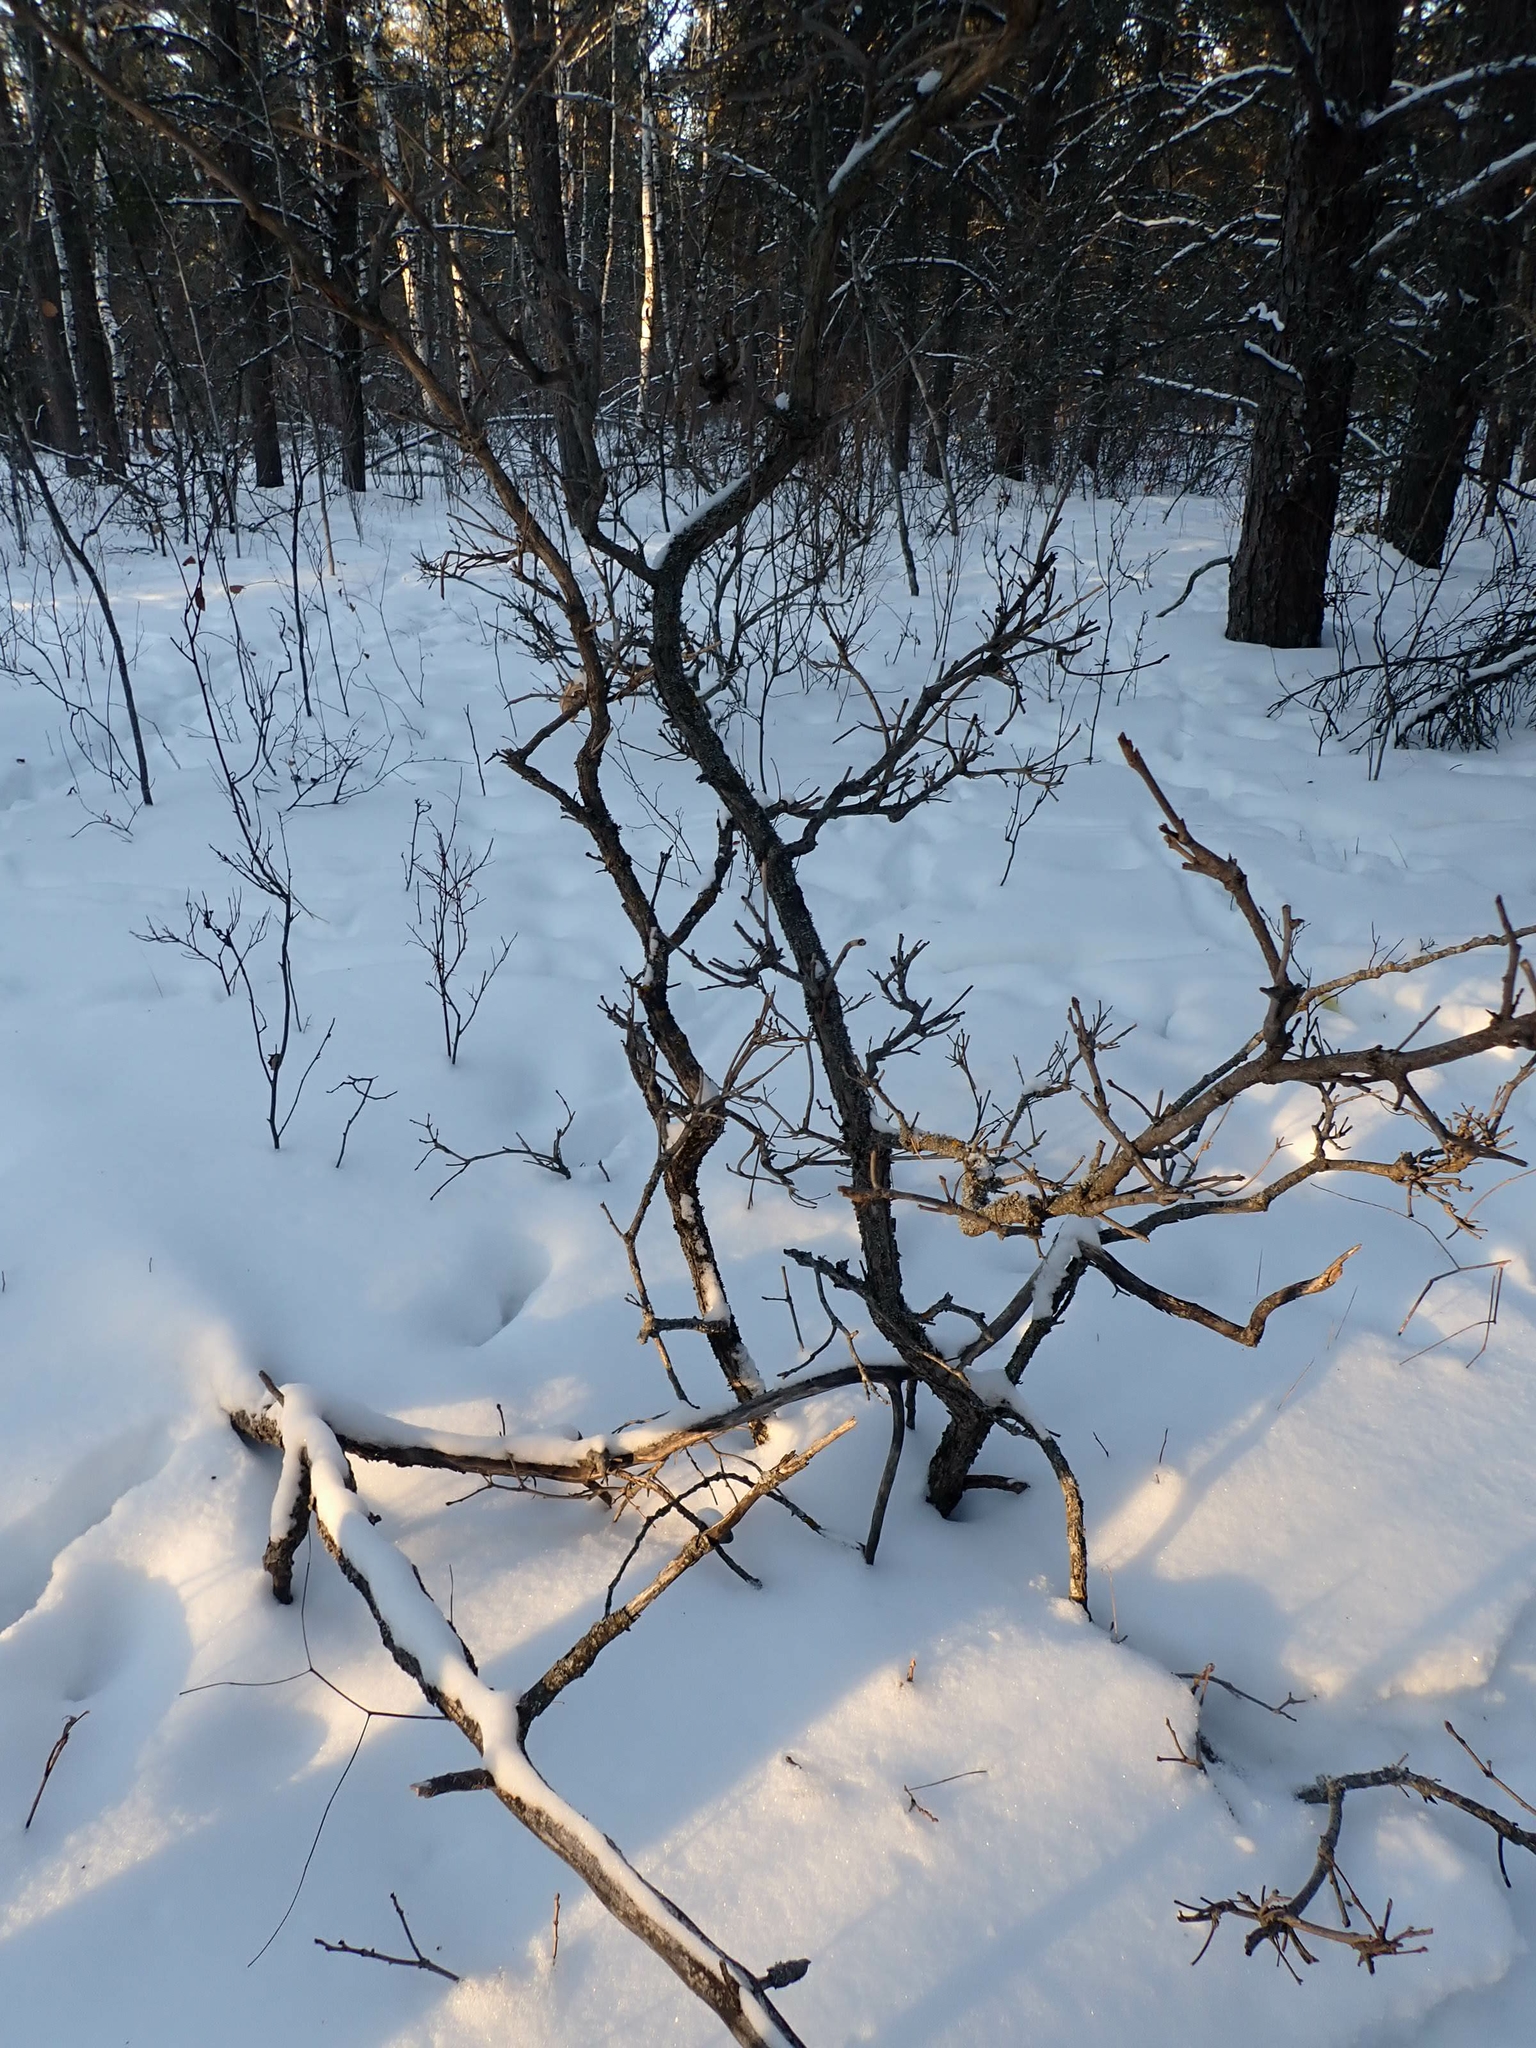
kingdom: Plantae
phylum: Tracheophyta
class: Magnoliopsida
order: Fagales
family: Fagaceae
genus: Quercus
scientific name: Quercus macrocarpa
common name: Bur oak
